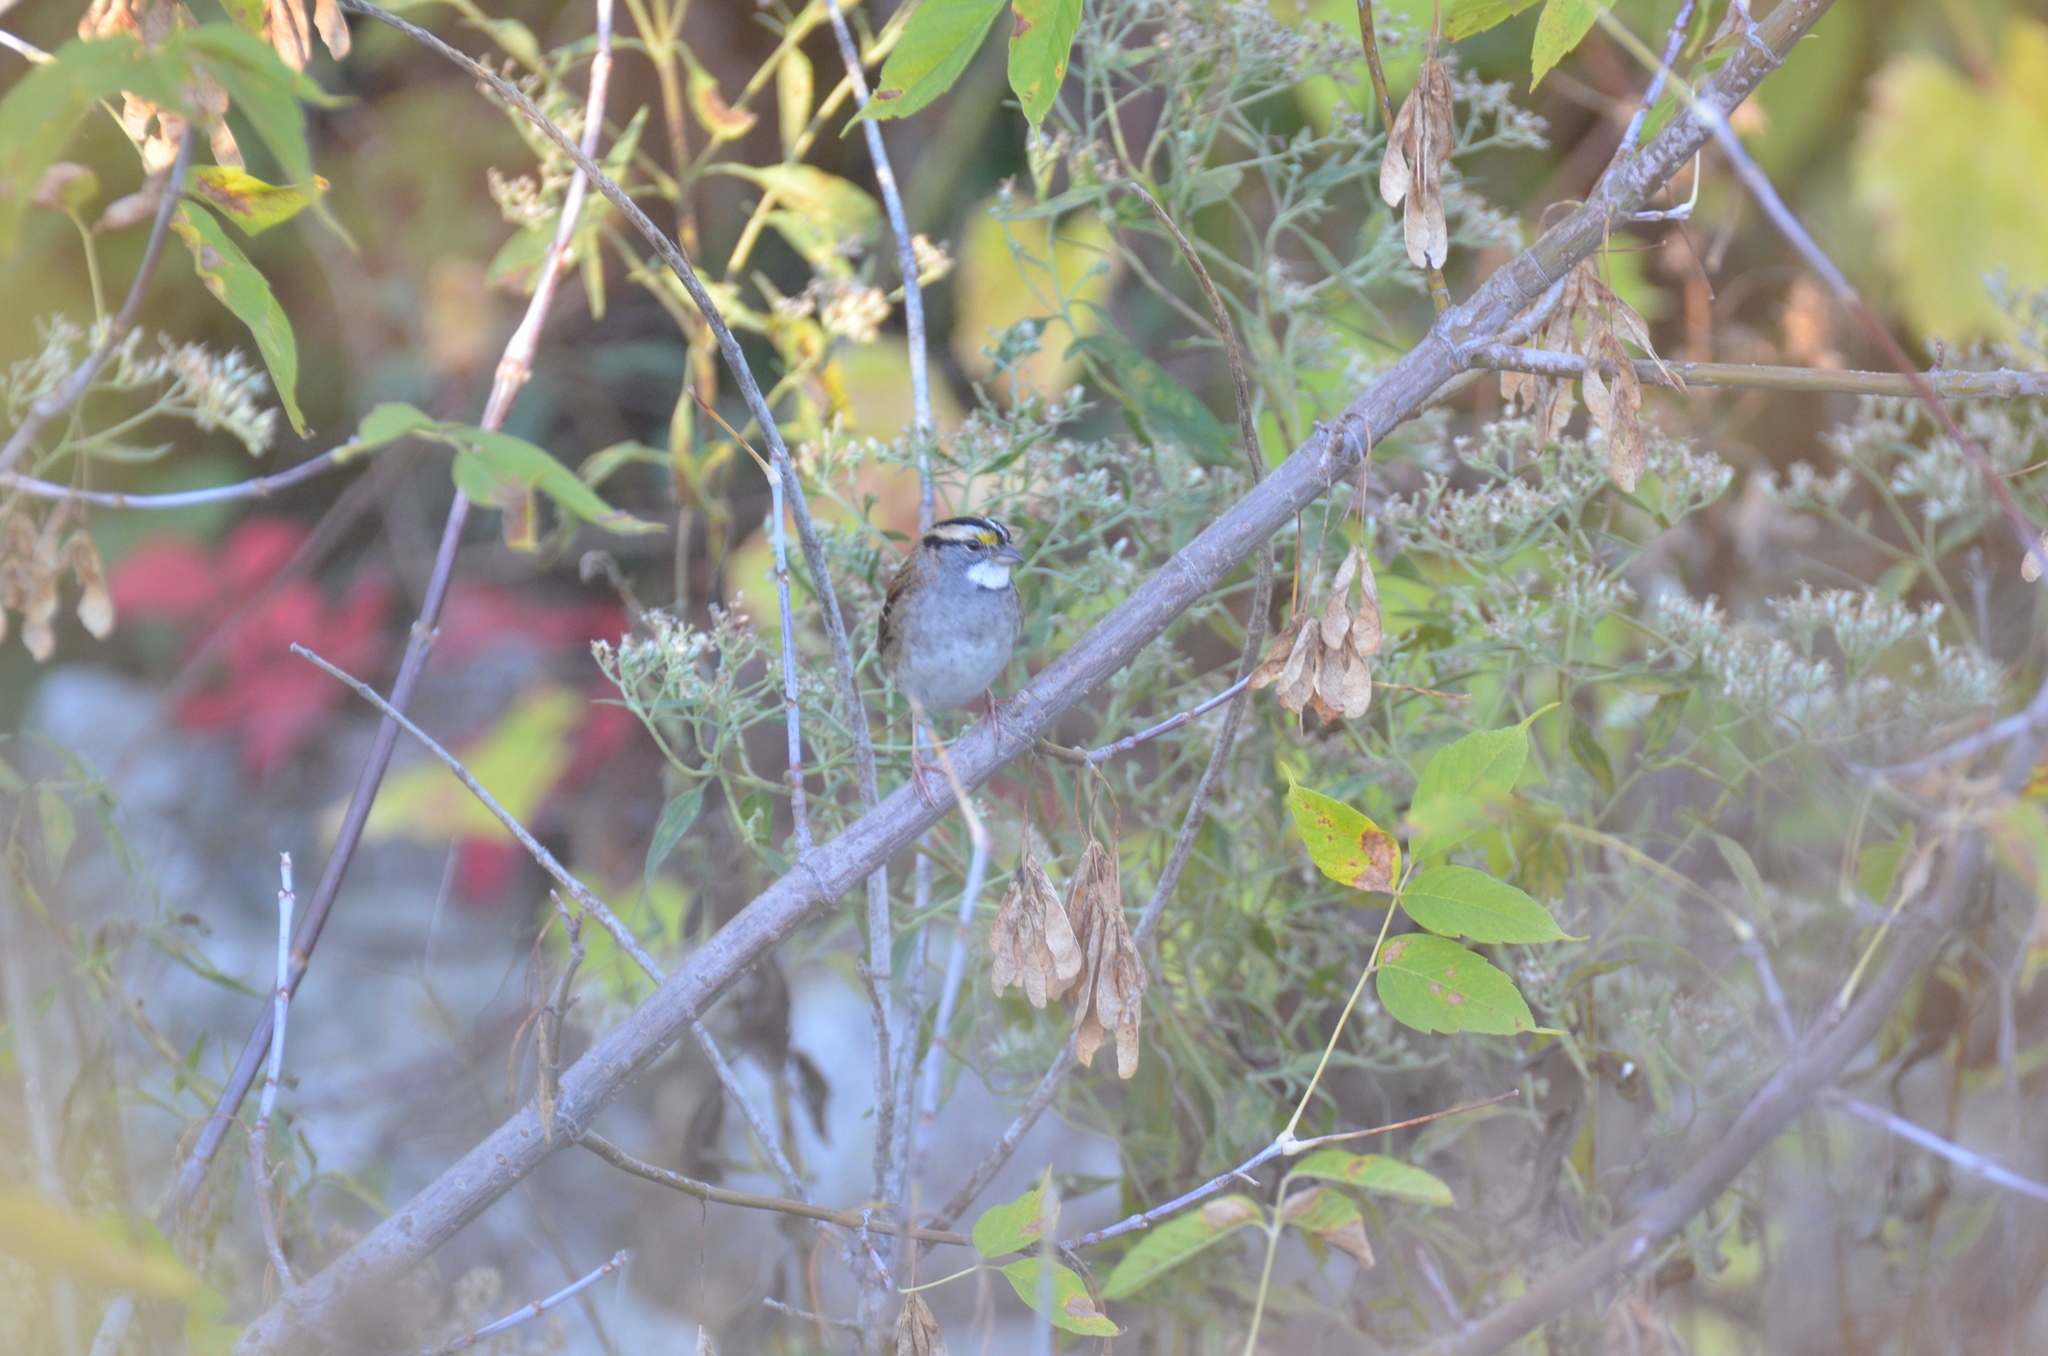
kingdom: Animalia
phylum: Chordata
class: Aves
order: Passeriformes
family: Passerellidae
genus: Zonotrichia
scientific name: Zonotrichia albicollis
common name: White-throated sparrow
